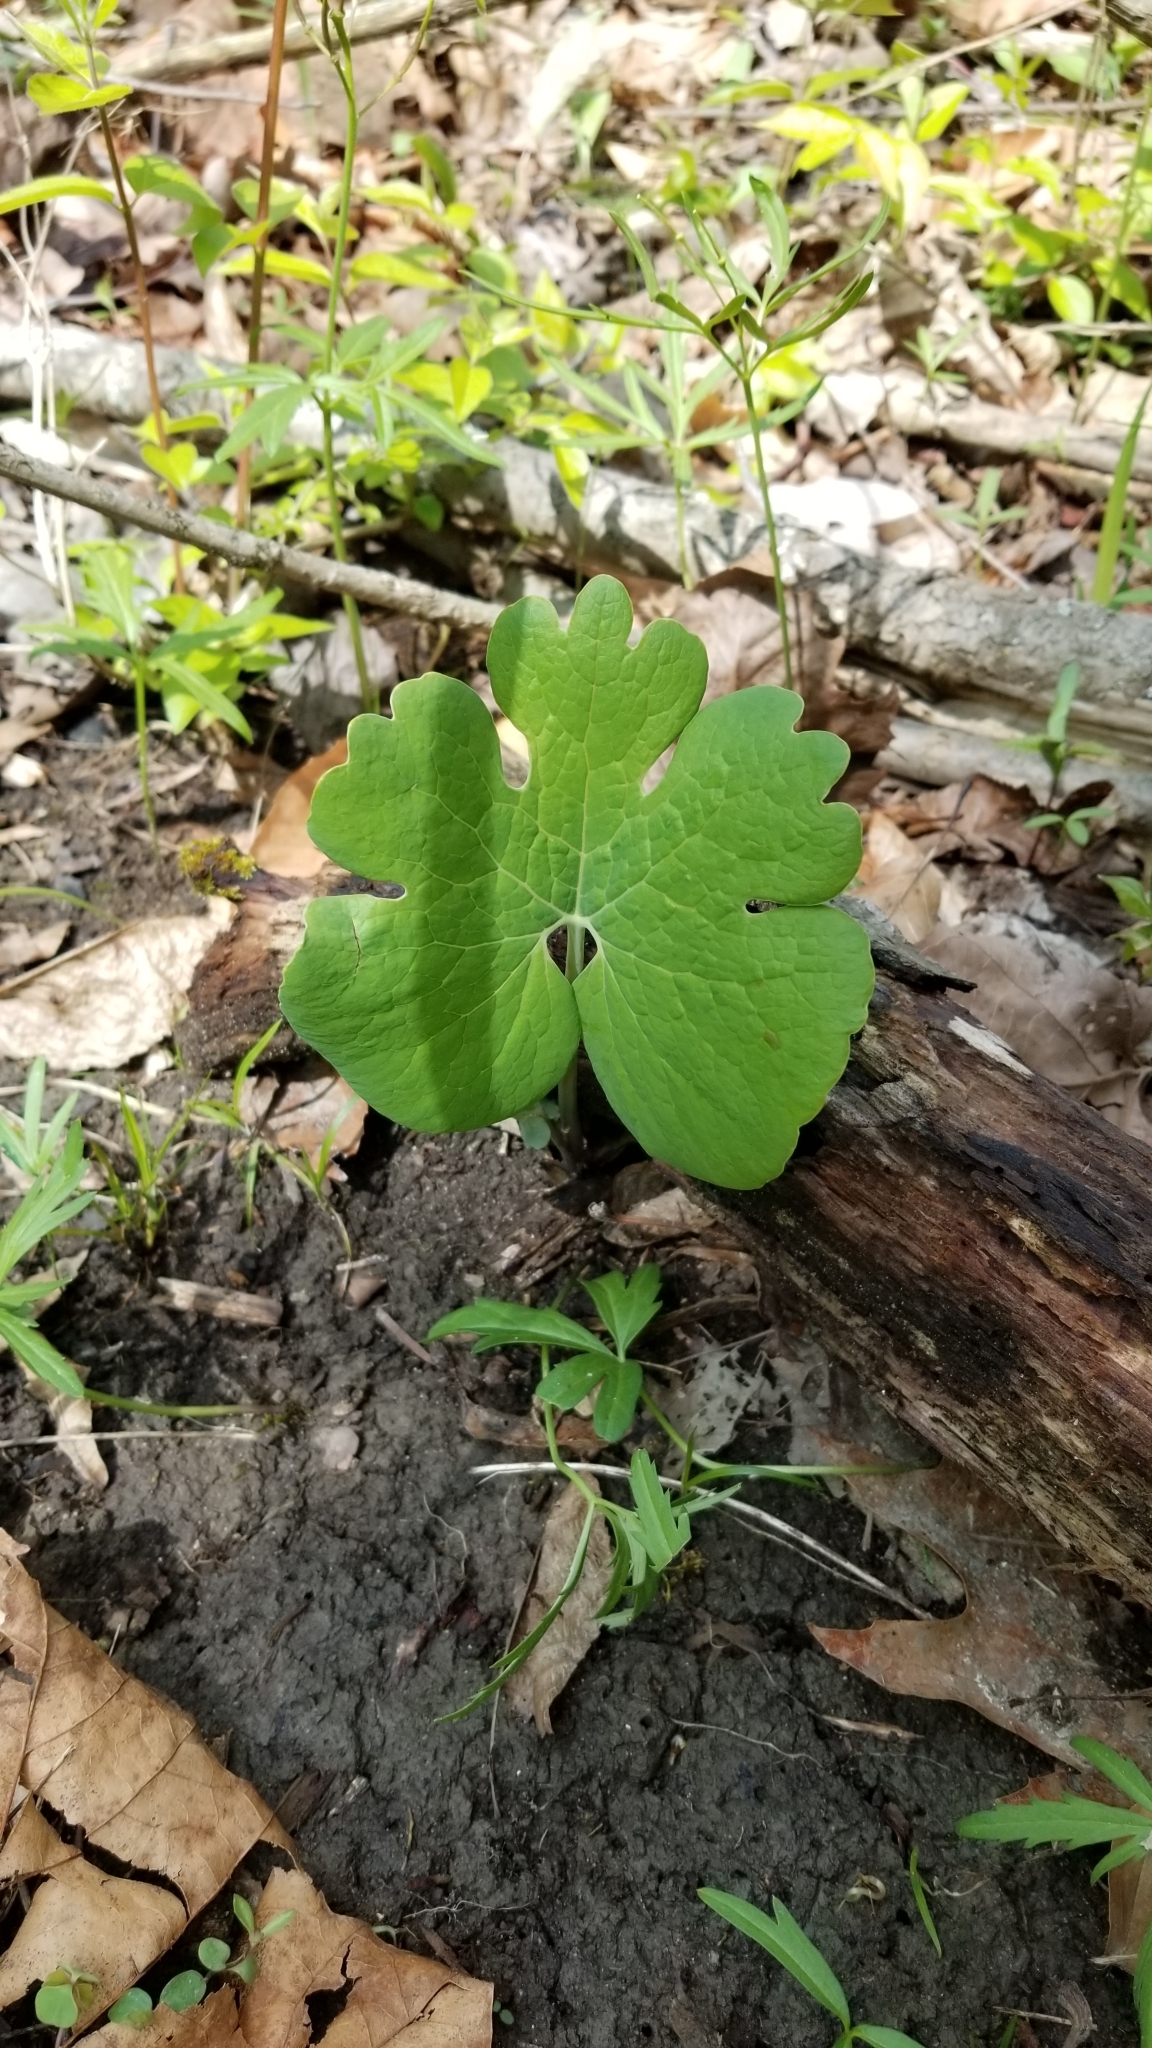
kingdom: Plantae
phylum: Tracheophyta
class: Magnoliopsida
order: Ranunculales
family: Papaveraceae
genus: Sanguinaria
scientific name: Sanguinaria canadensis
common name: Bloodroot
